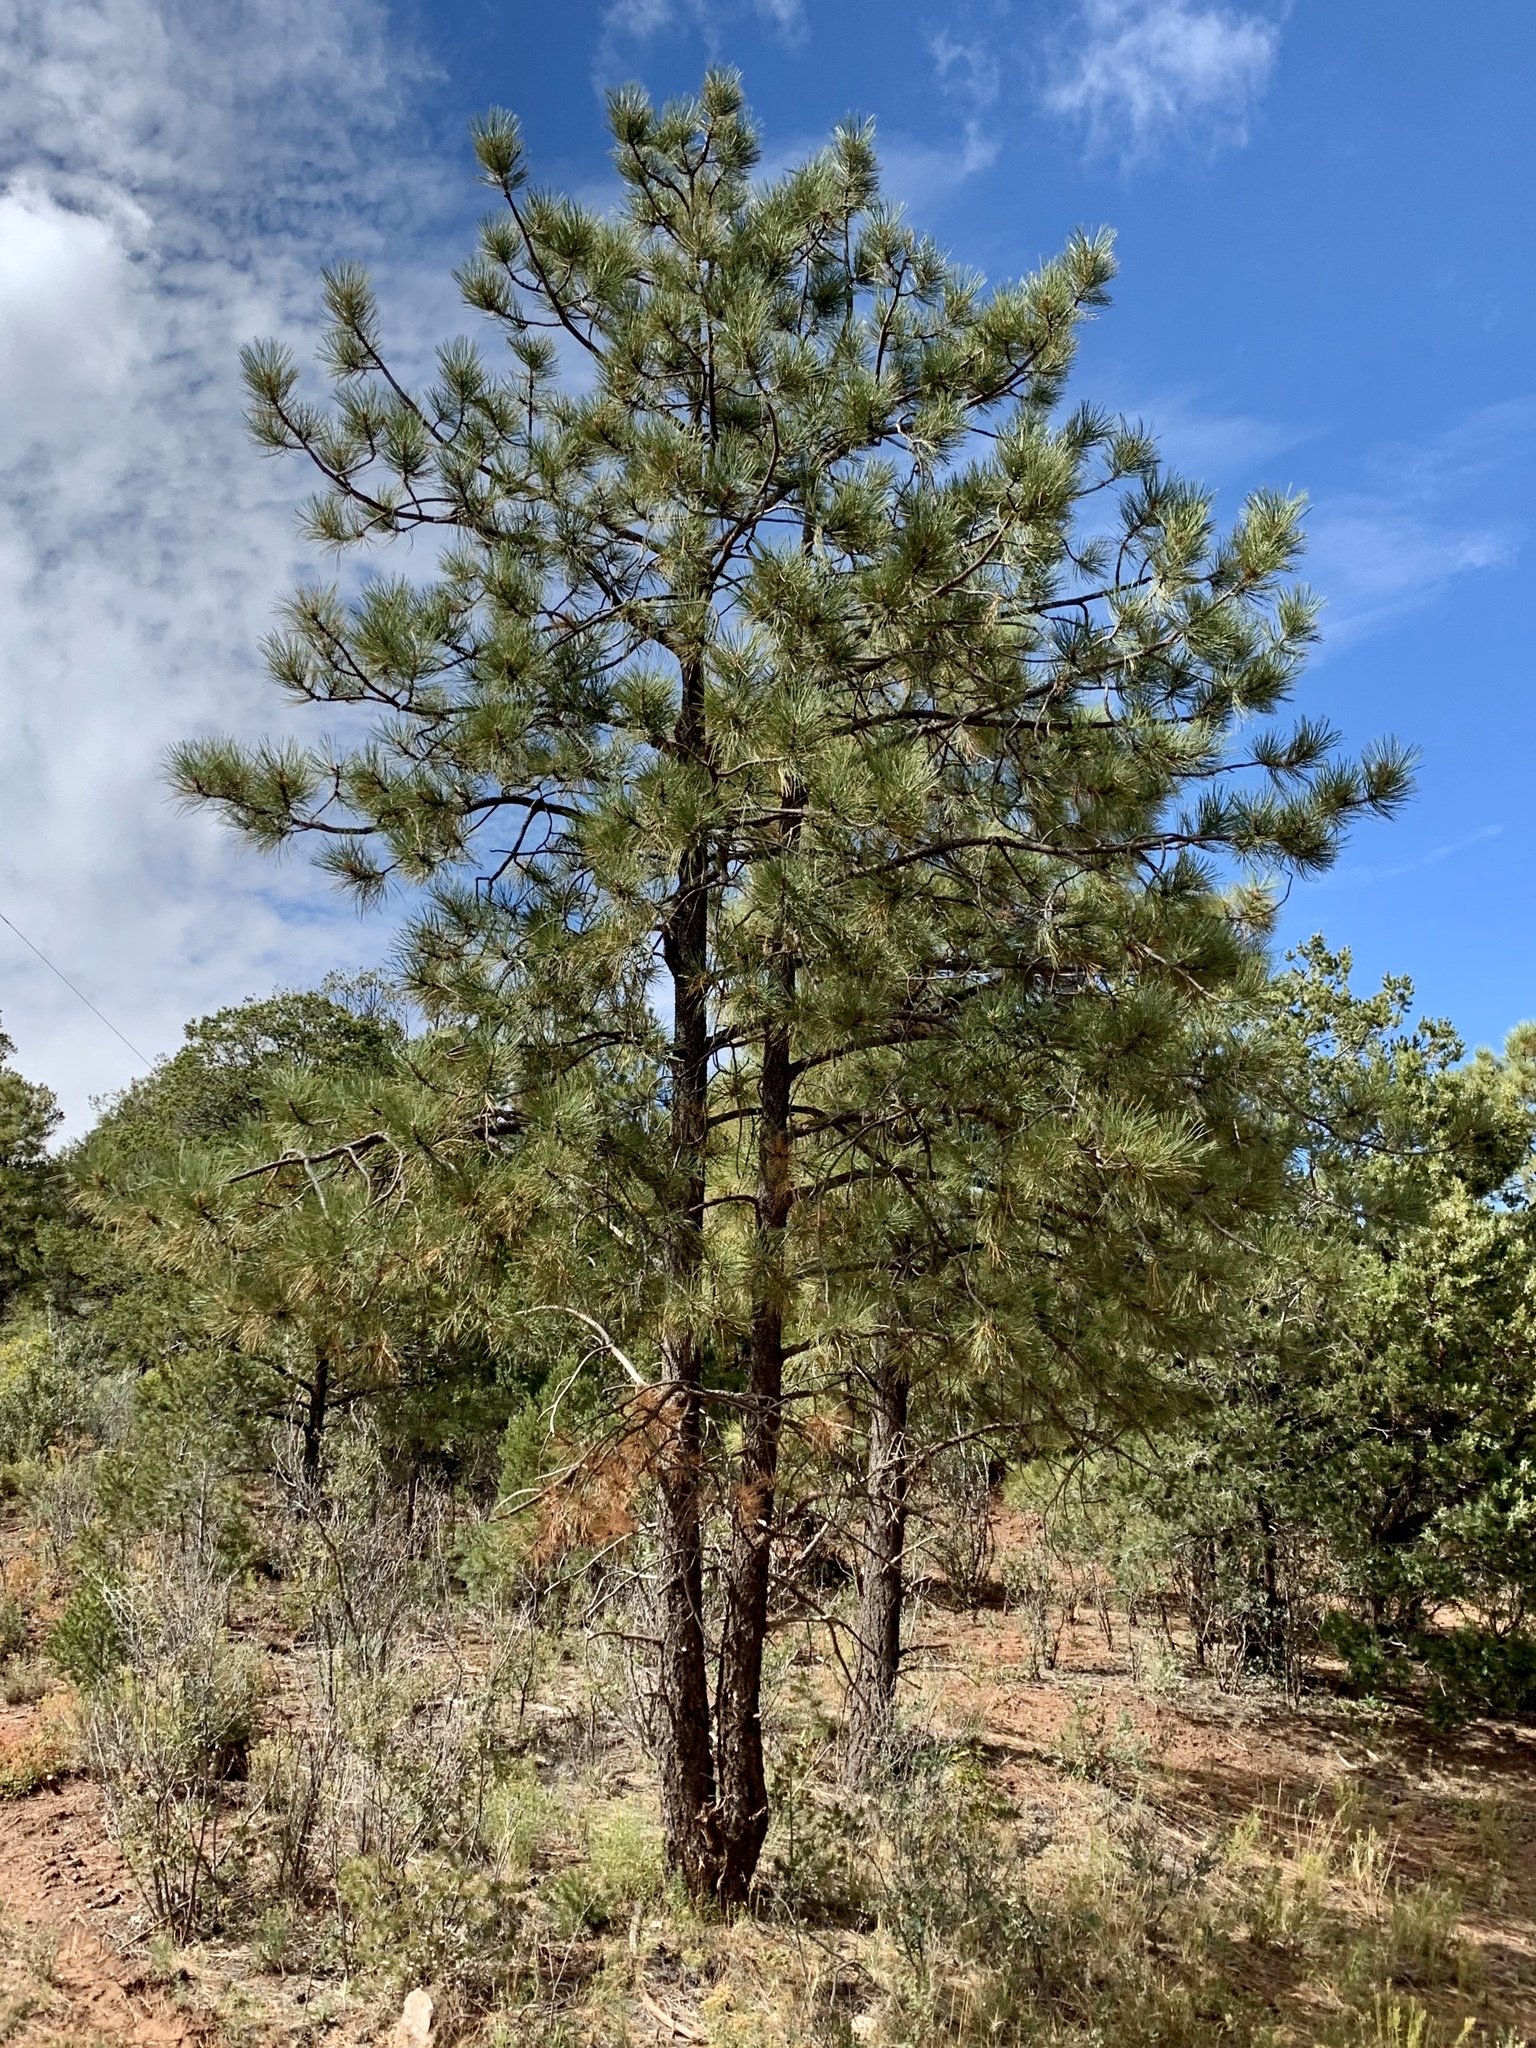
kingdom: Plantae
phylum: Tracheophyta
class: Pinopsida
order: Pinales
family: Pinaceae
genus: Pinus
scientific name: Pinus ponderosa
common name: Western yellow-pine
